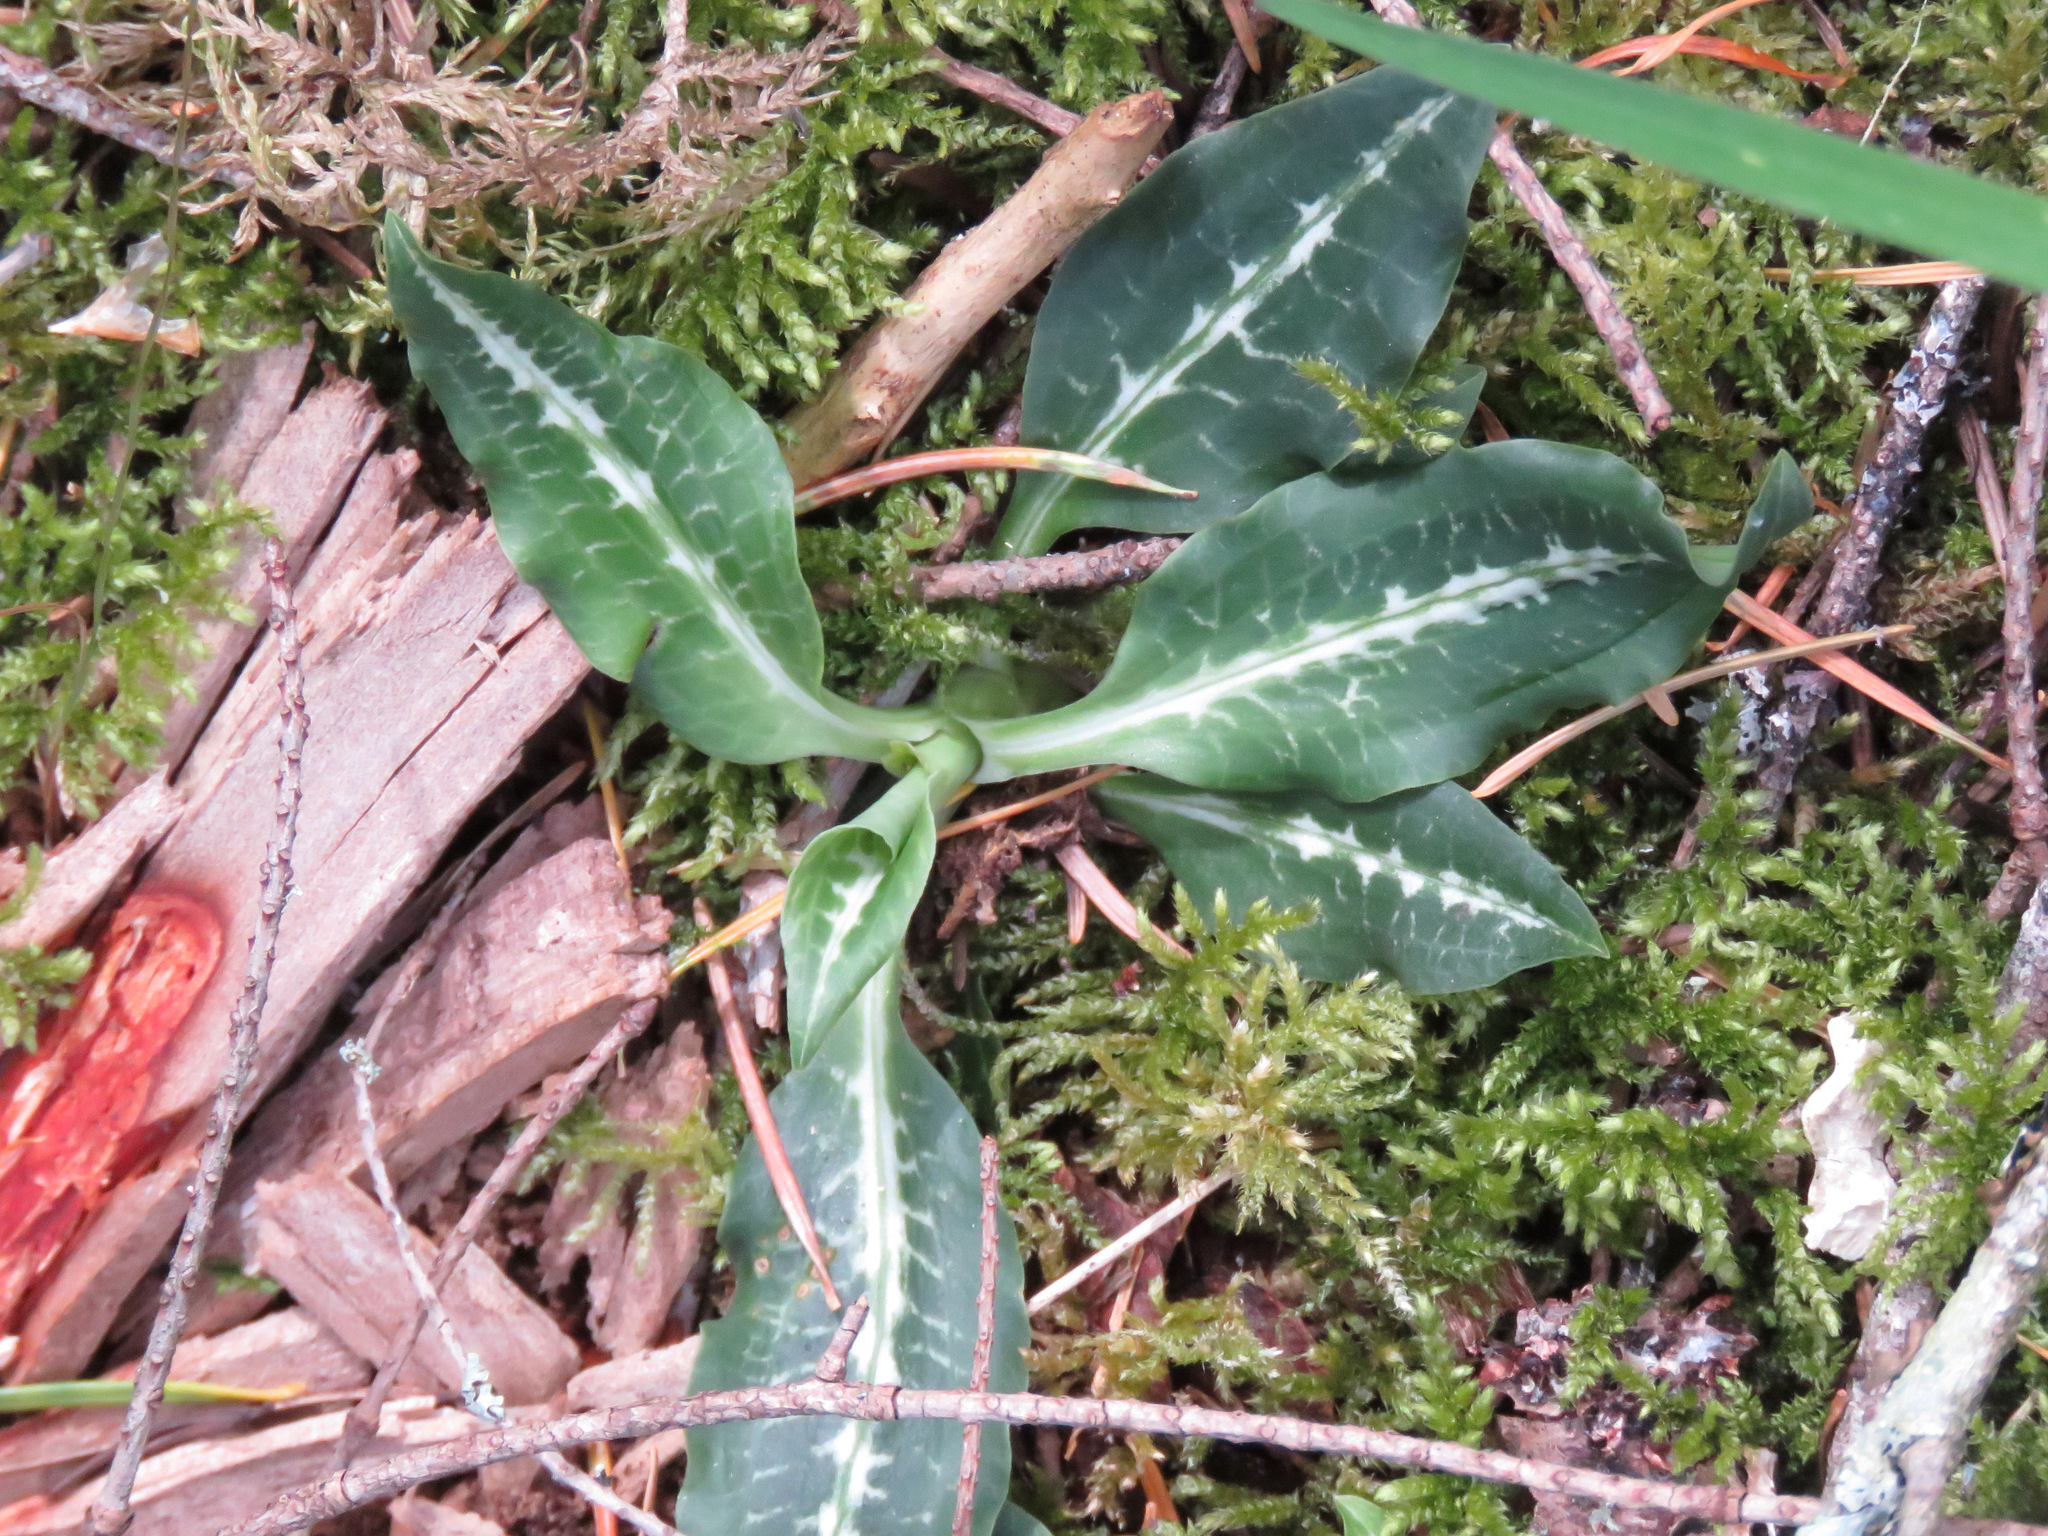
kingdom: Plantae
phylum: Tracheophyta
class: Liliopsida
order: Asparagales
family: Orchidaceae
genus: Goodyera
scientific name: Goodyera oblongifolia
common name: Giant rattlesnake-plantain
